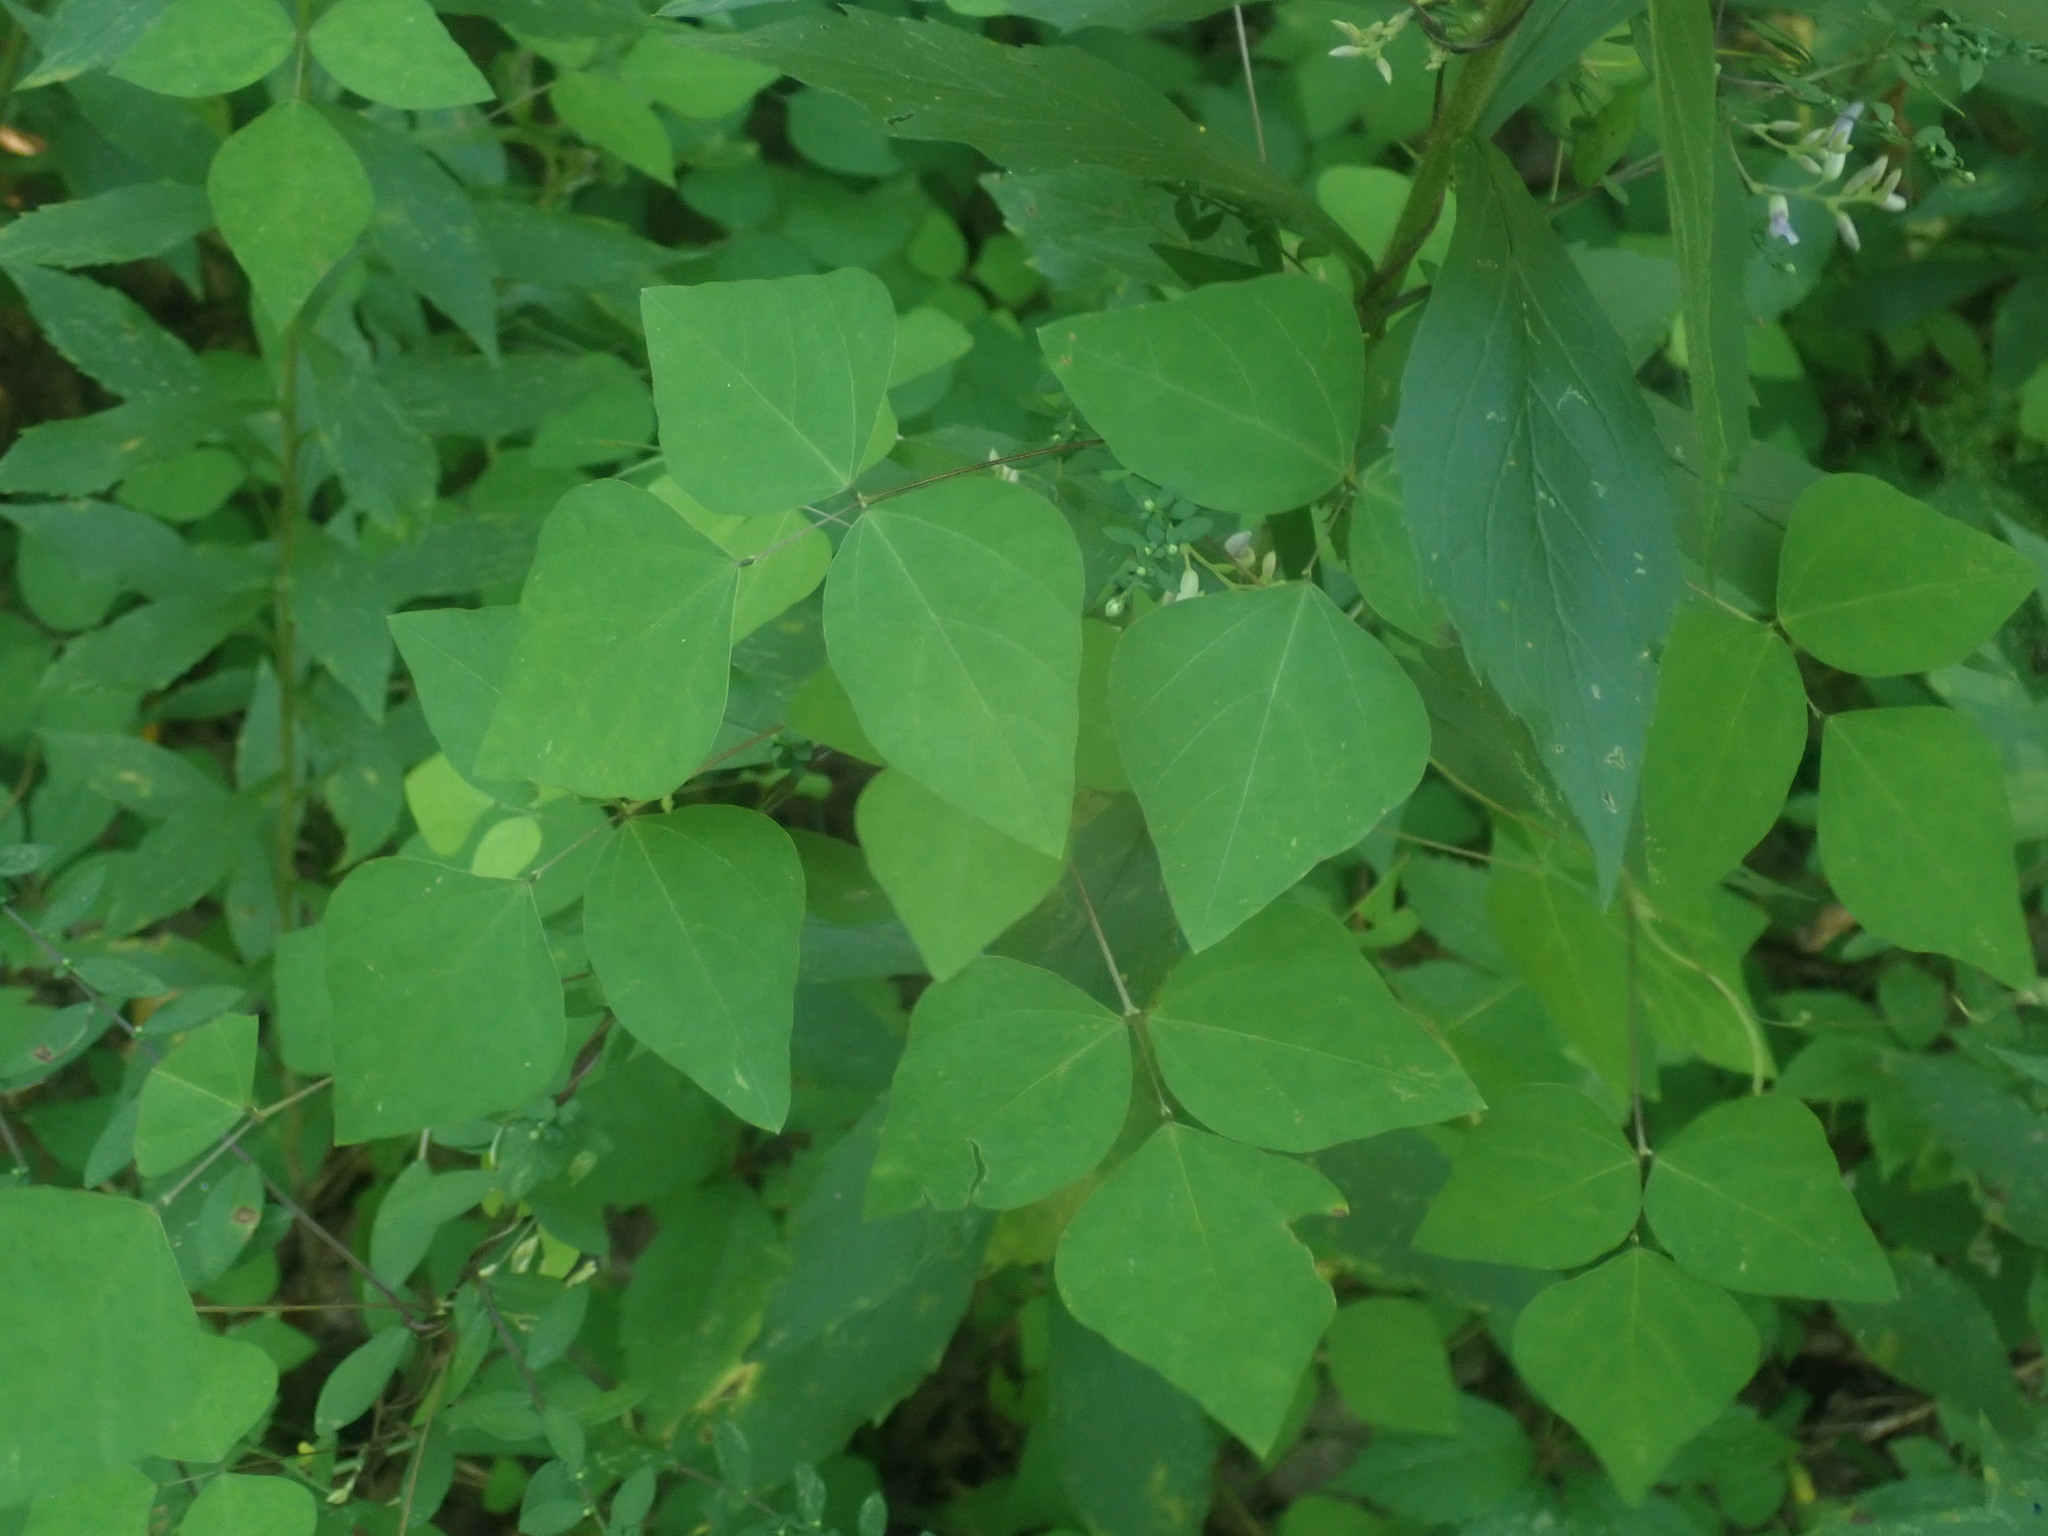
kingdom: Plantae
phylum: Tracheophyta
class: Magnoliopsida
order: Fabales
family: Fabaceae
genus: Amphicarpaea
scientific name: Amphicarpaea bracteata
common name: American hog peanut
